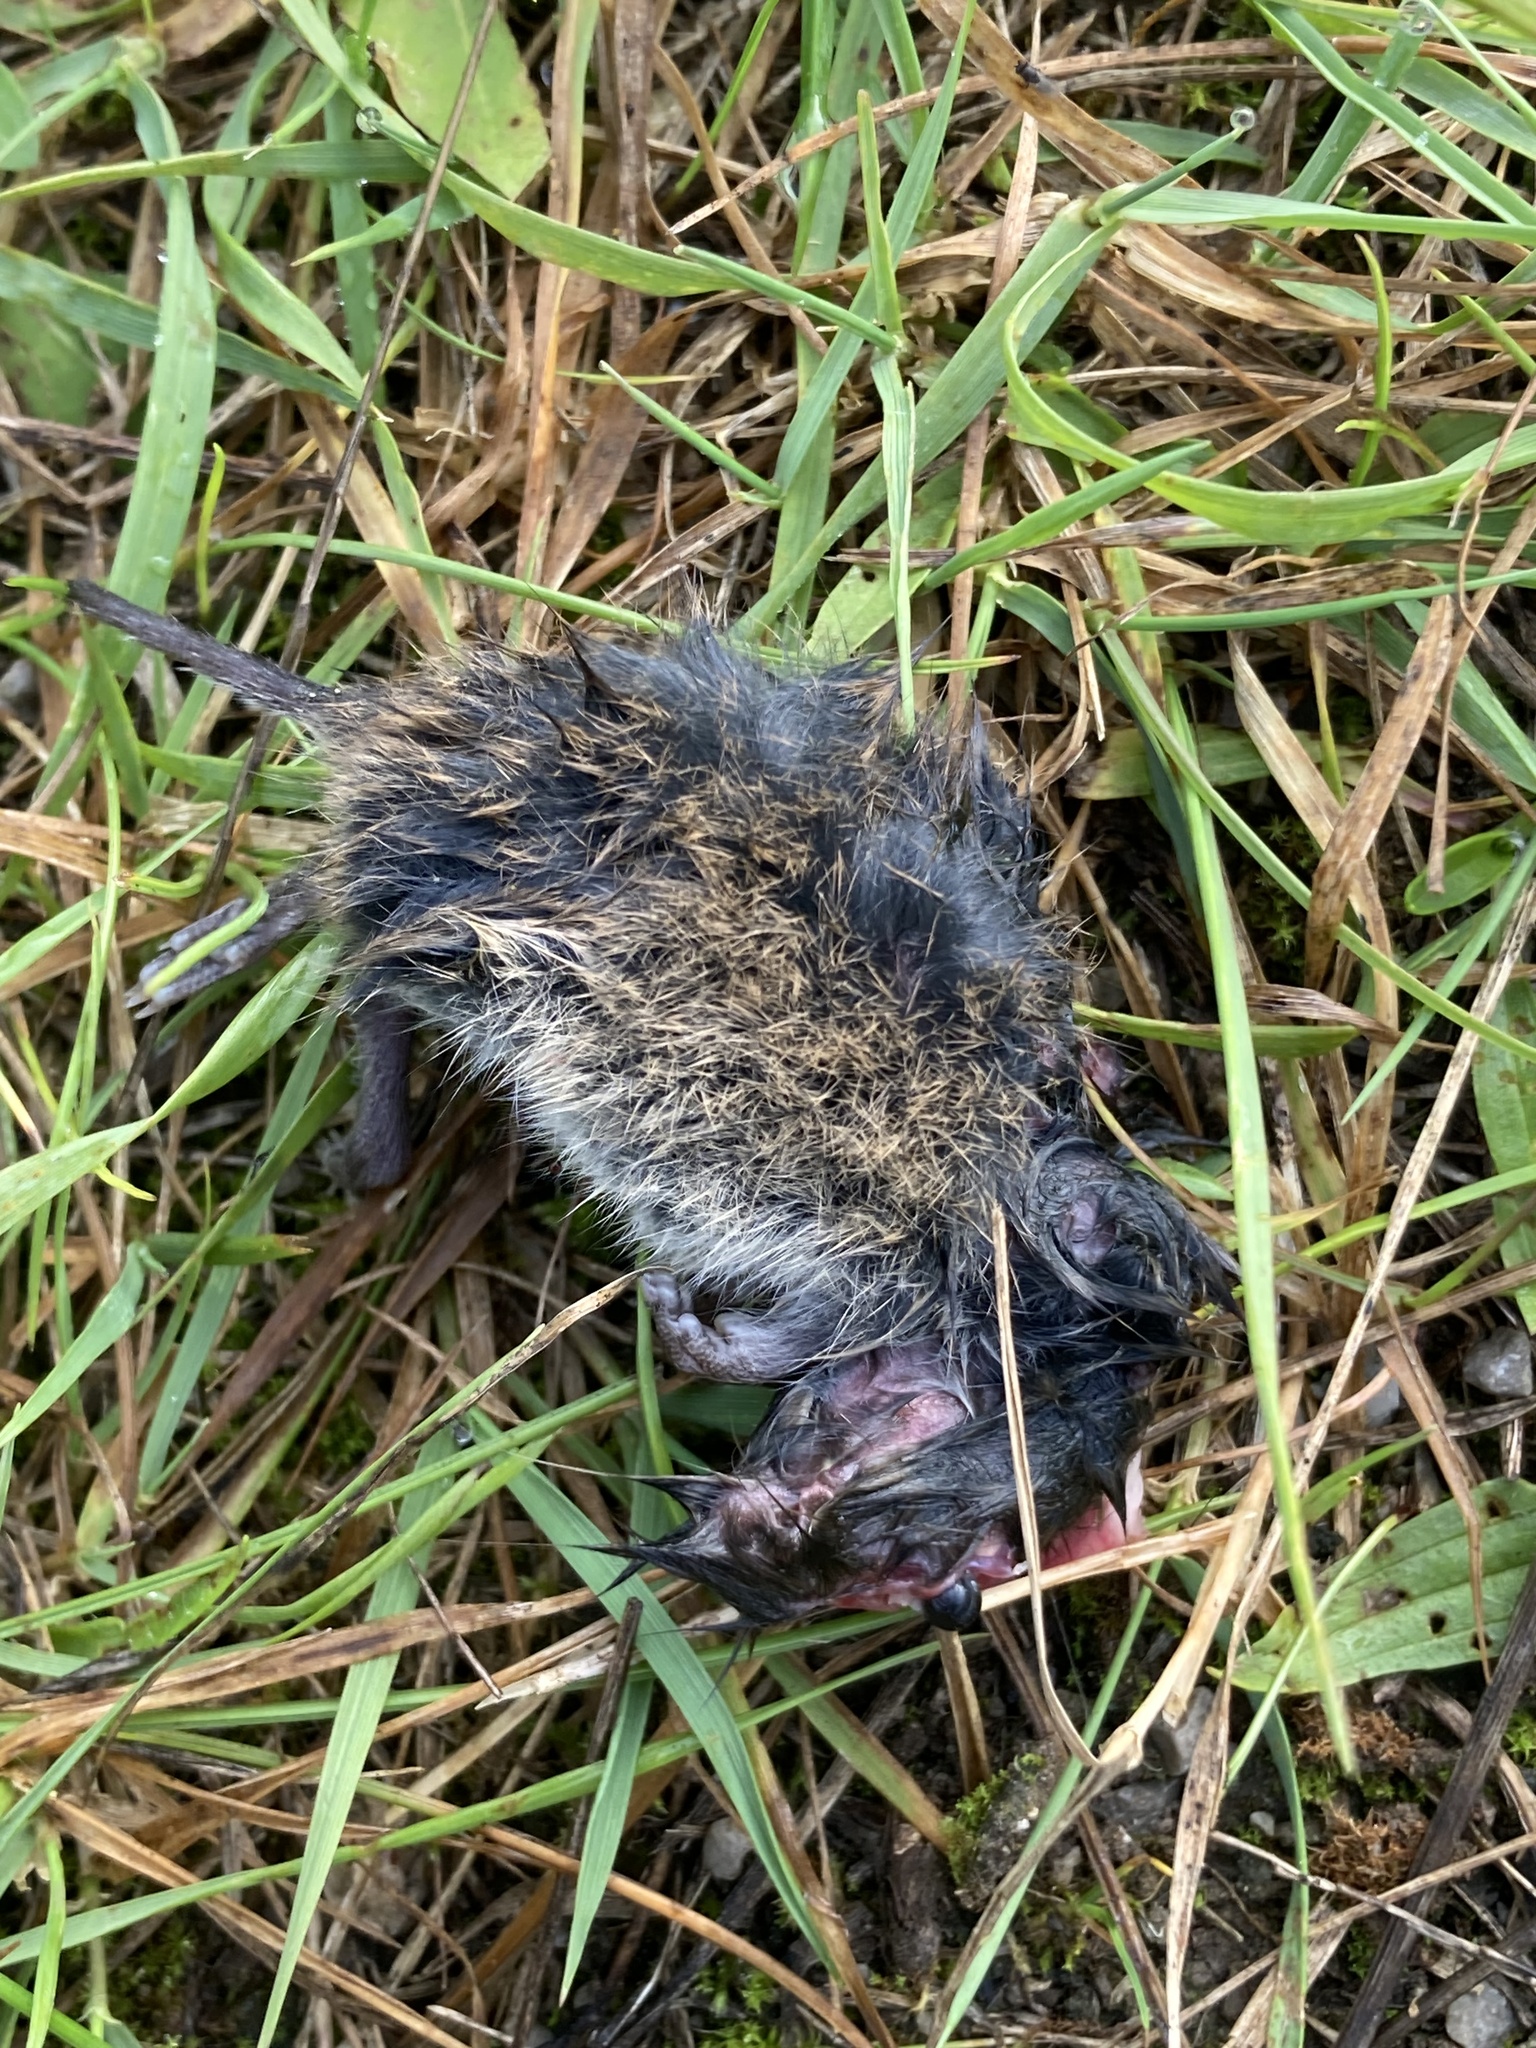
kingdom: Animalia
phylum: Chordata
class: Mammalia
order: Rodentia
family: Cricetidae
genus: Microtus
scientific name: Microtus agrestis
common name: Field vole
